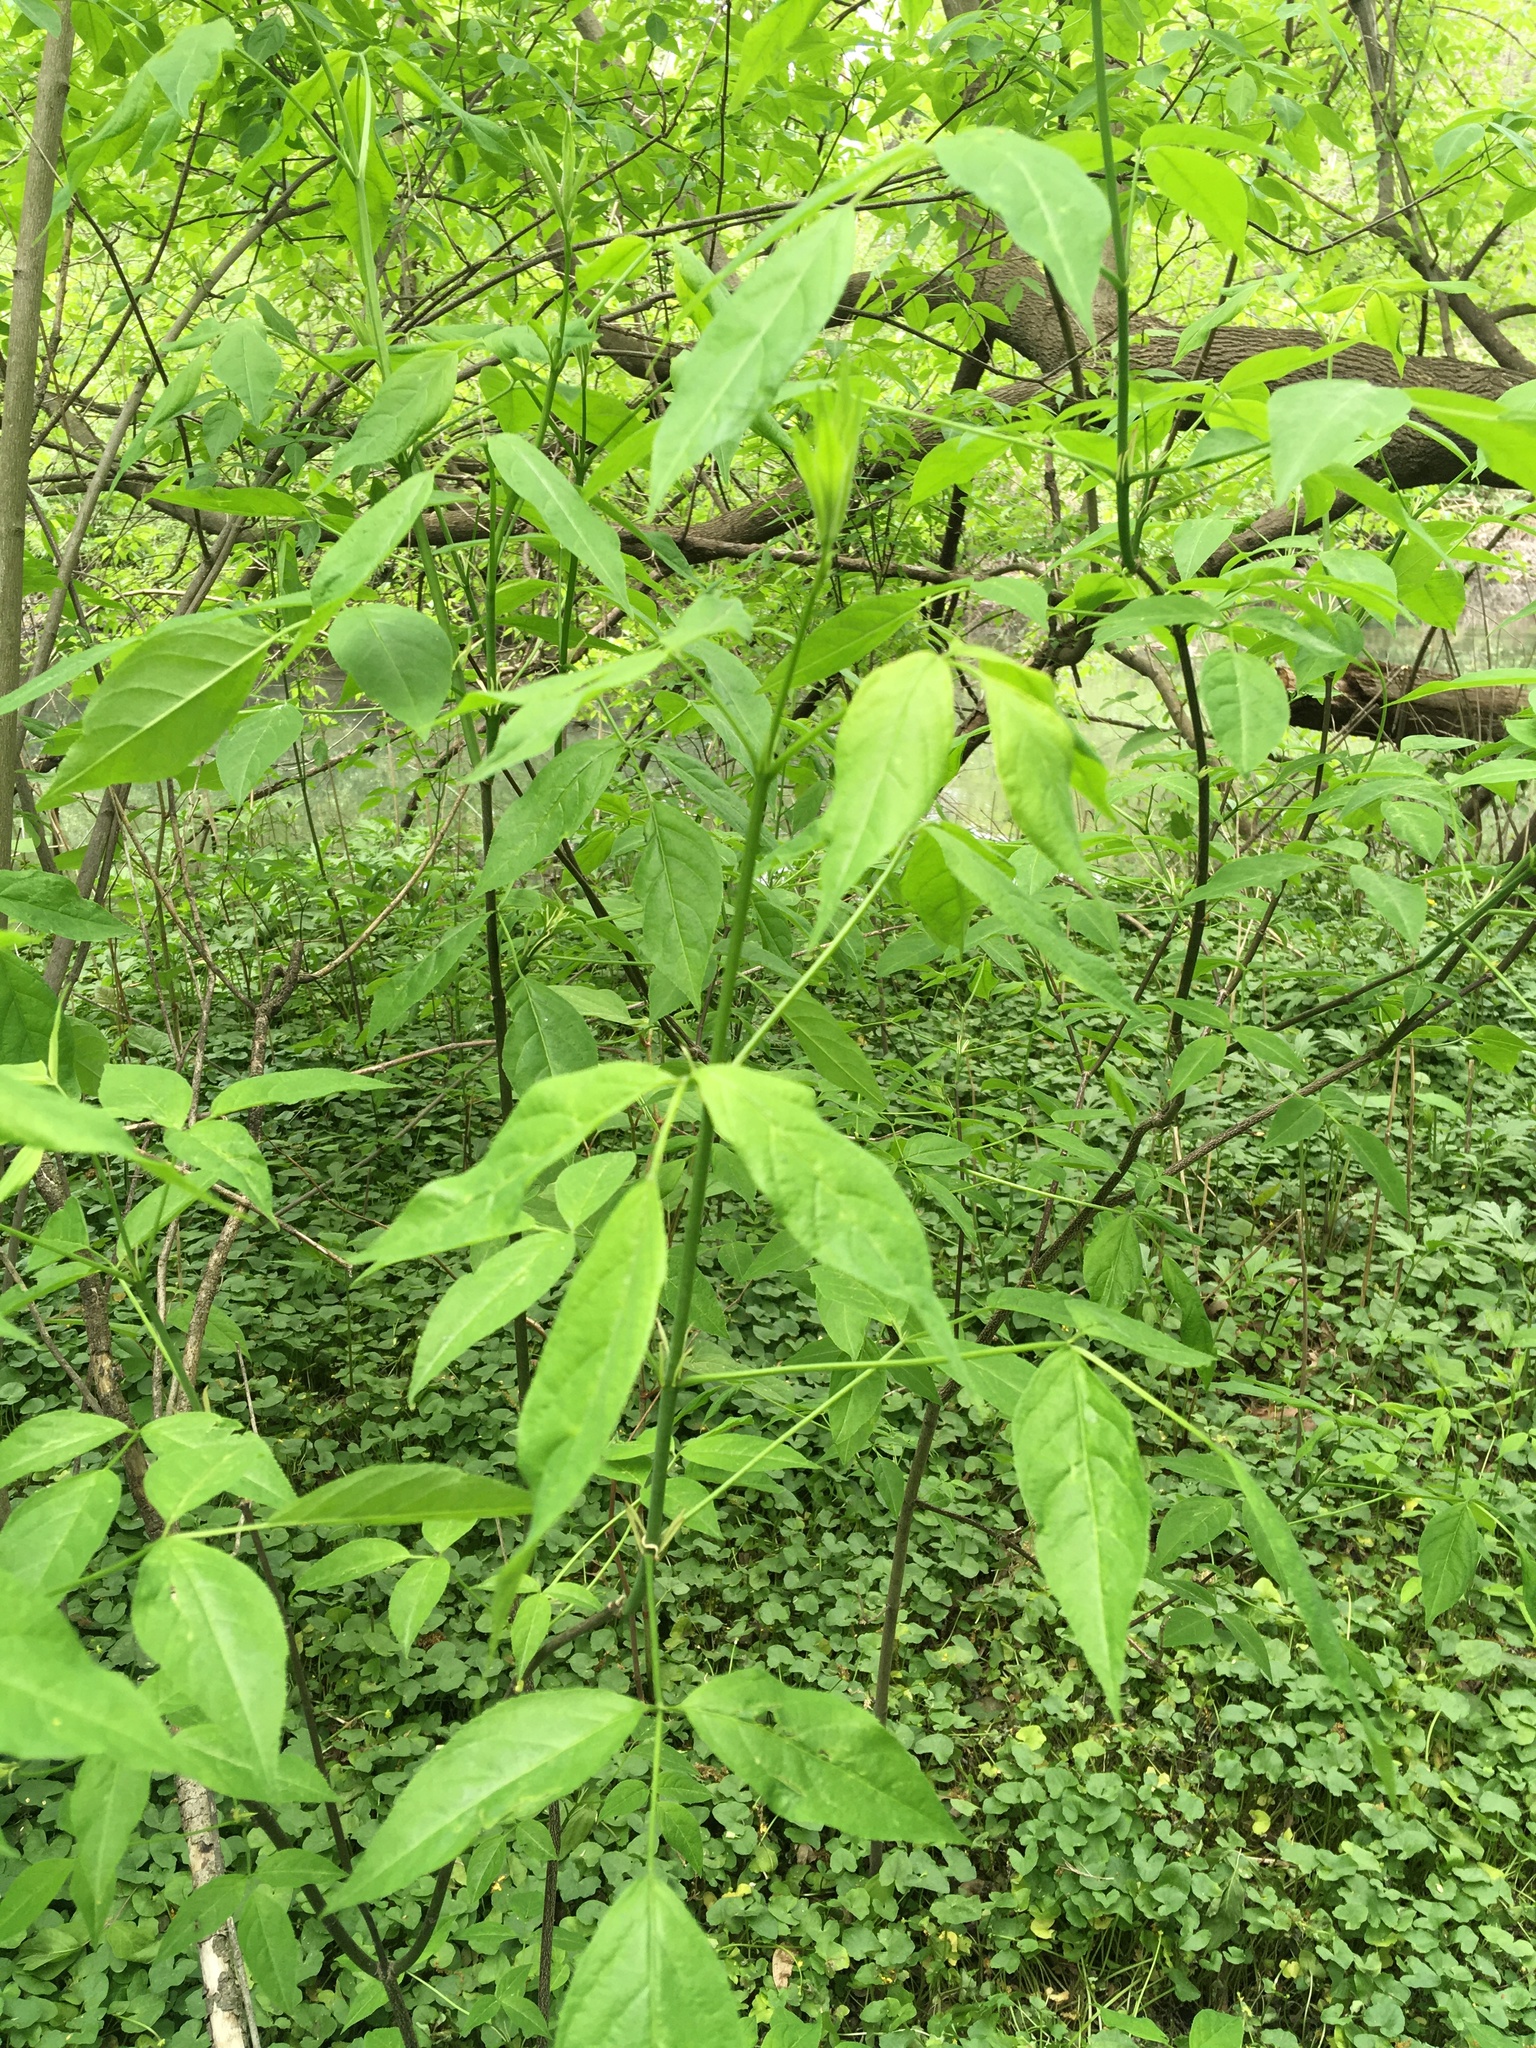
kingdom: Plantae
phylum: Tracheophyta
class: Magnoliopsida
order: Crossosomatales
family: Staphyleaceae
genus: Staphylea
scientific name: Staphylea trifolia
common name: American bladdernut
